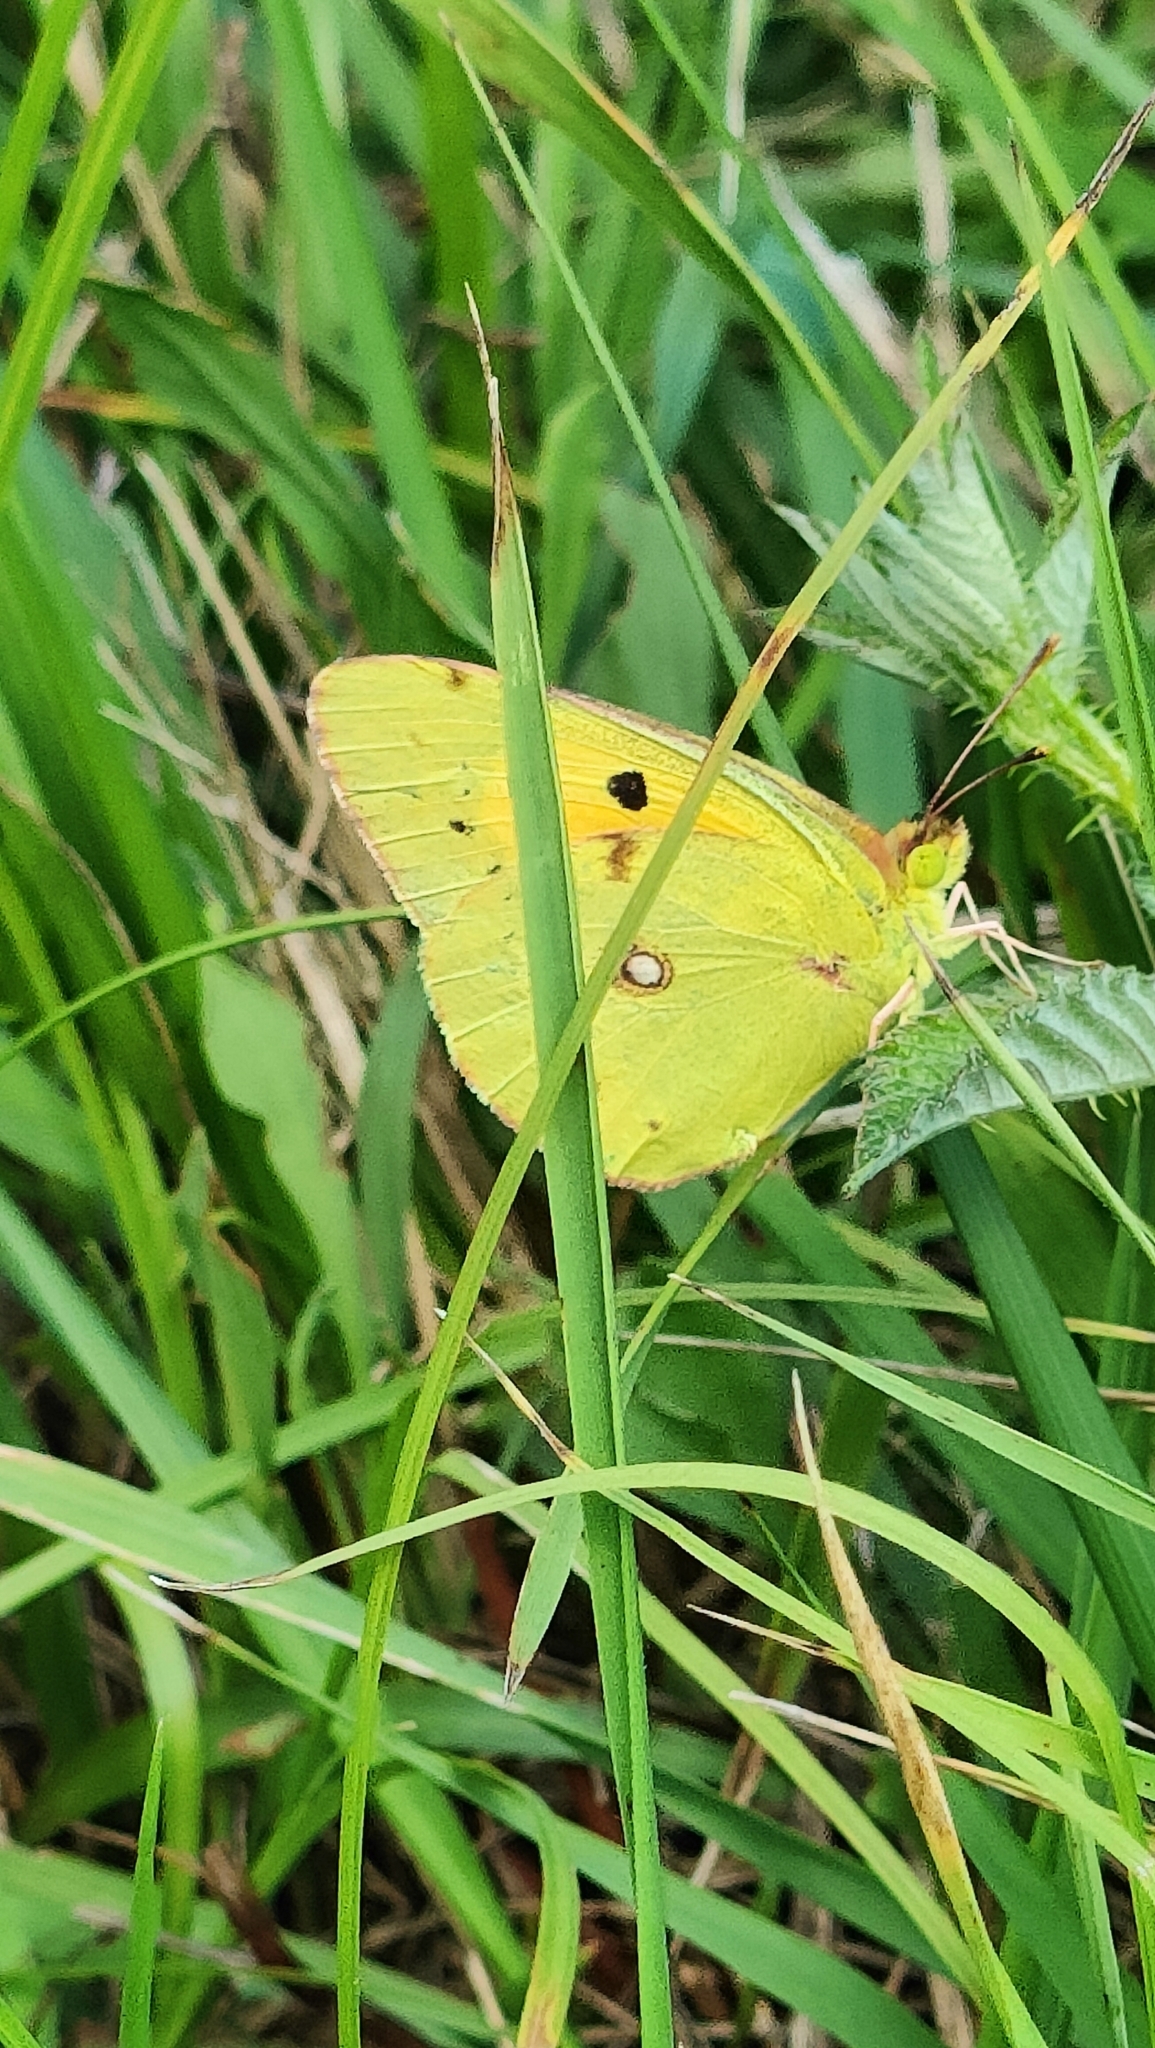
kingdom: Animalia
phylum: Arthropoda
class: Insecta
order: Lepidoptera
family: Pieridae
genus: Colias
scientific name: Colias croceus
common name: Clouded yellow
